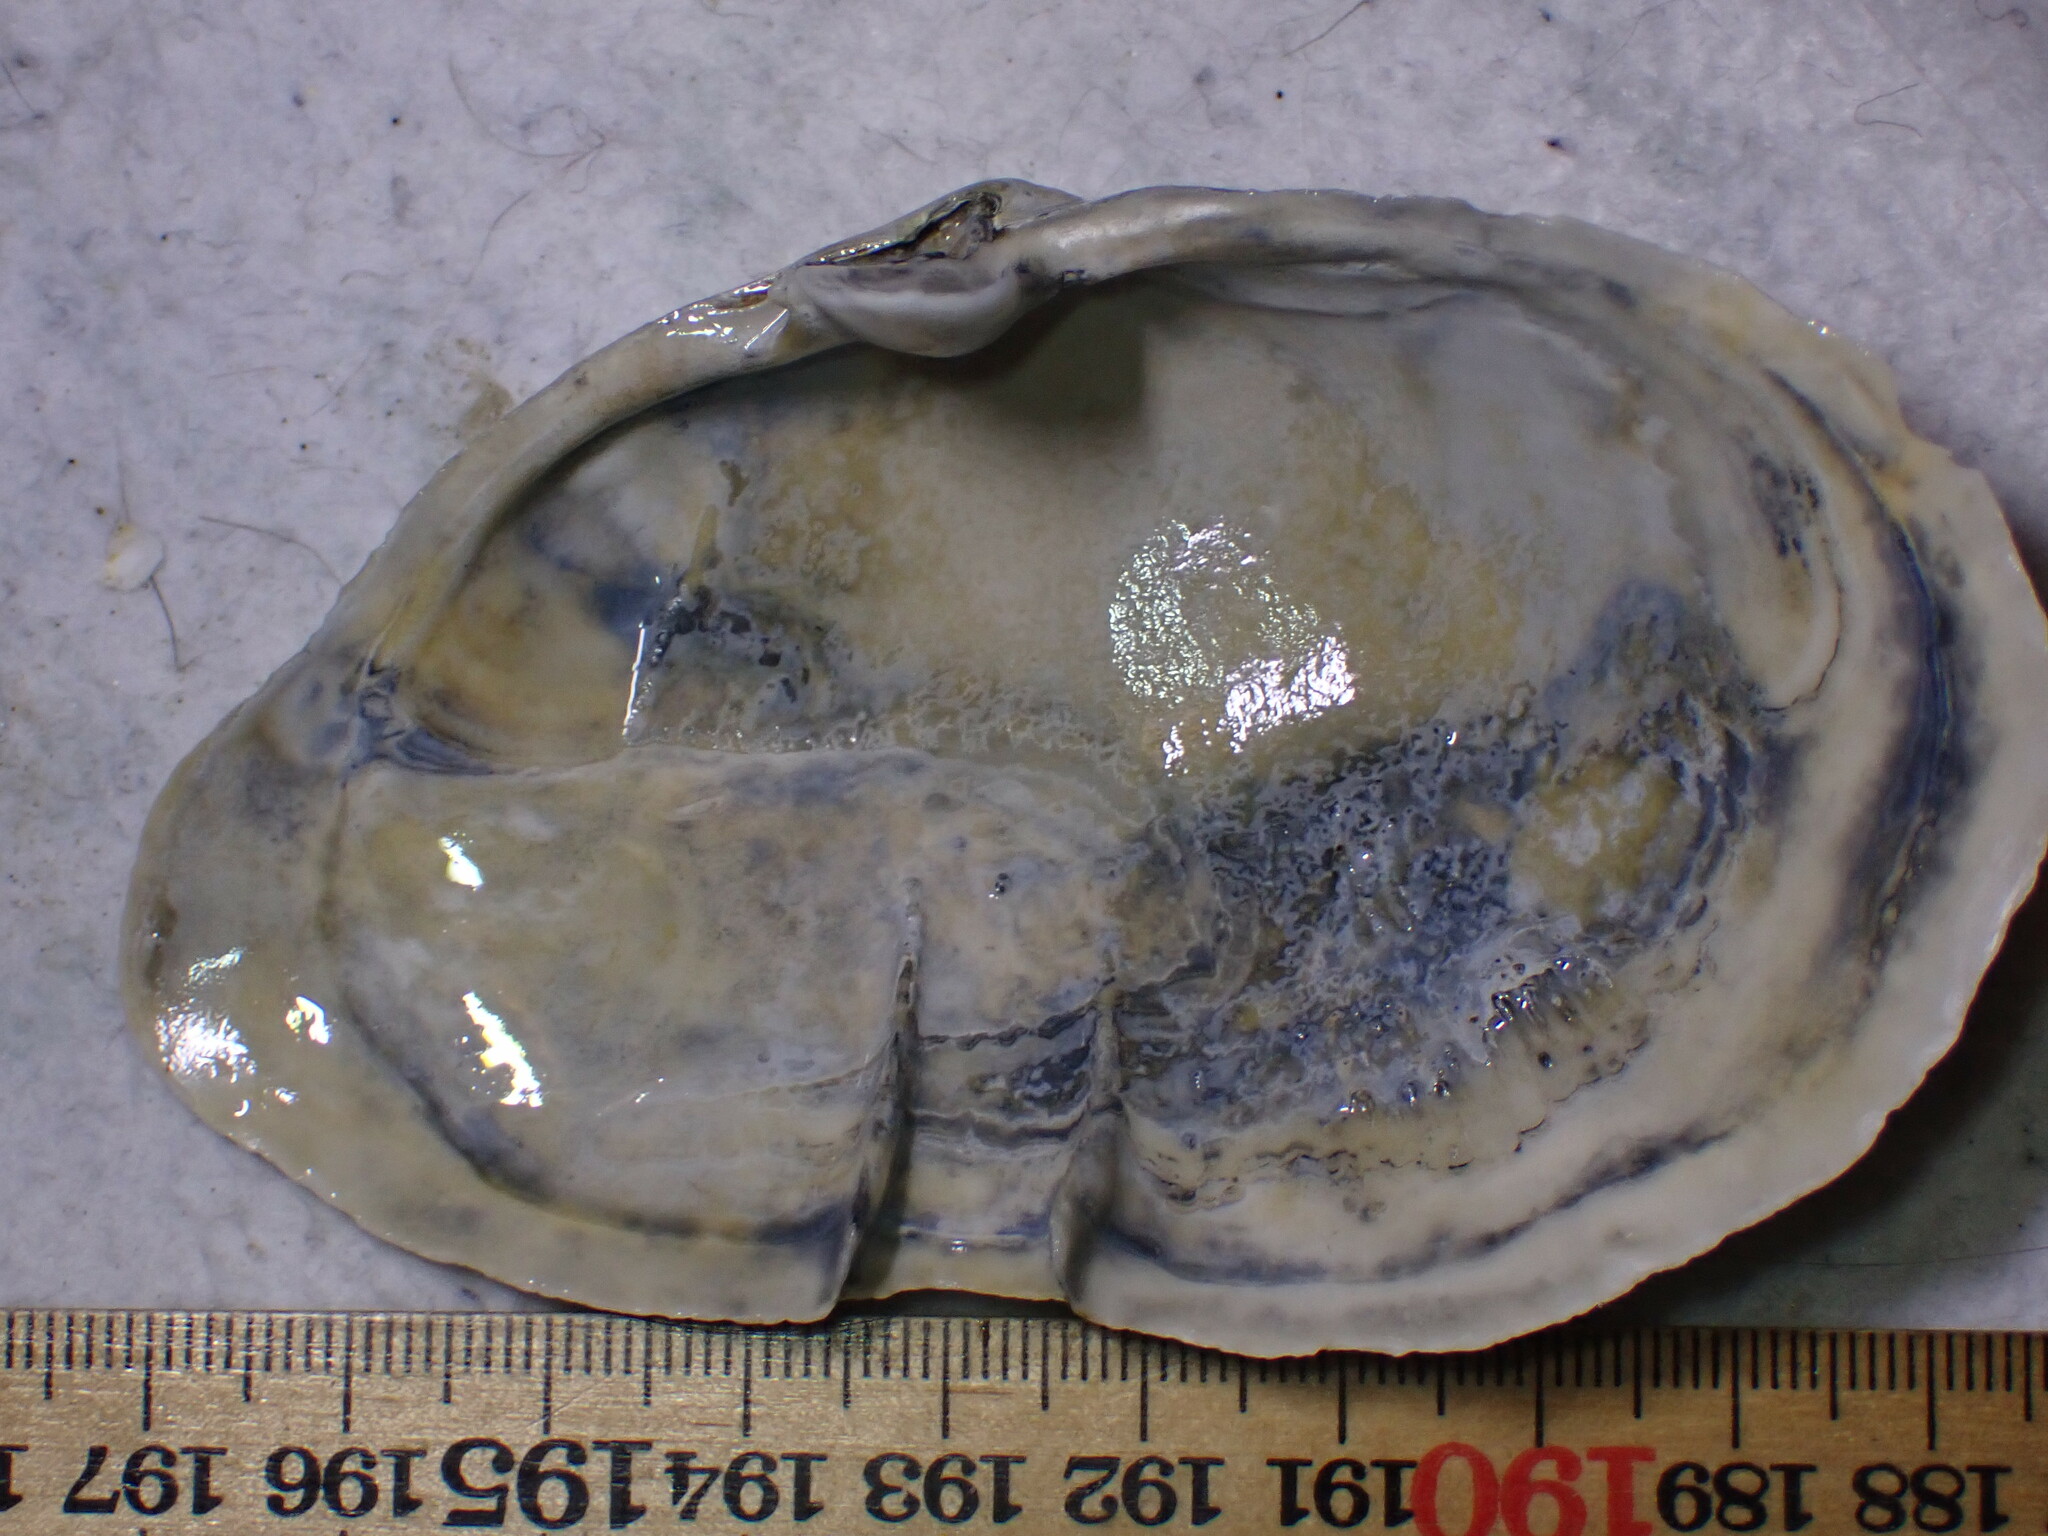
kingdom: Animalia
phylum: Mollusca
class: Bivalvia
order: Myida
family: Myidae
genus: Mya
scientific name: Mya arenaria
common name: Soft-shelled clam
